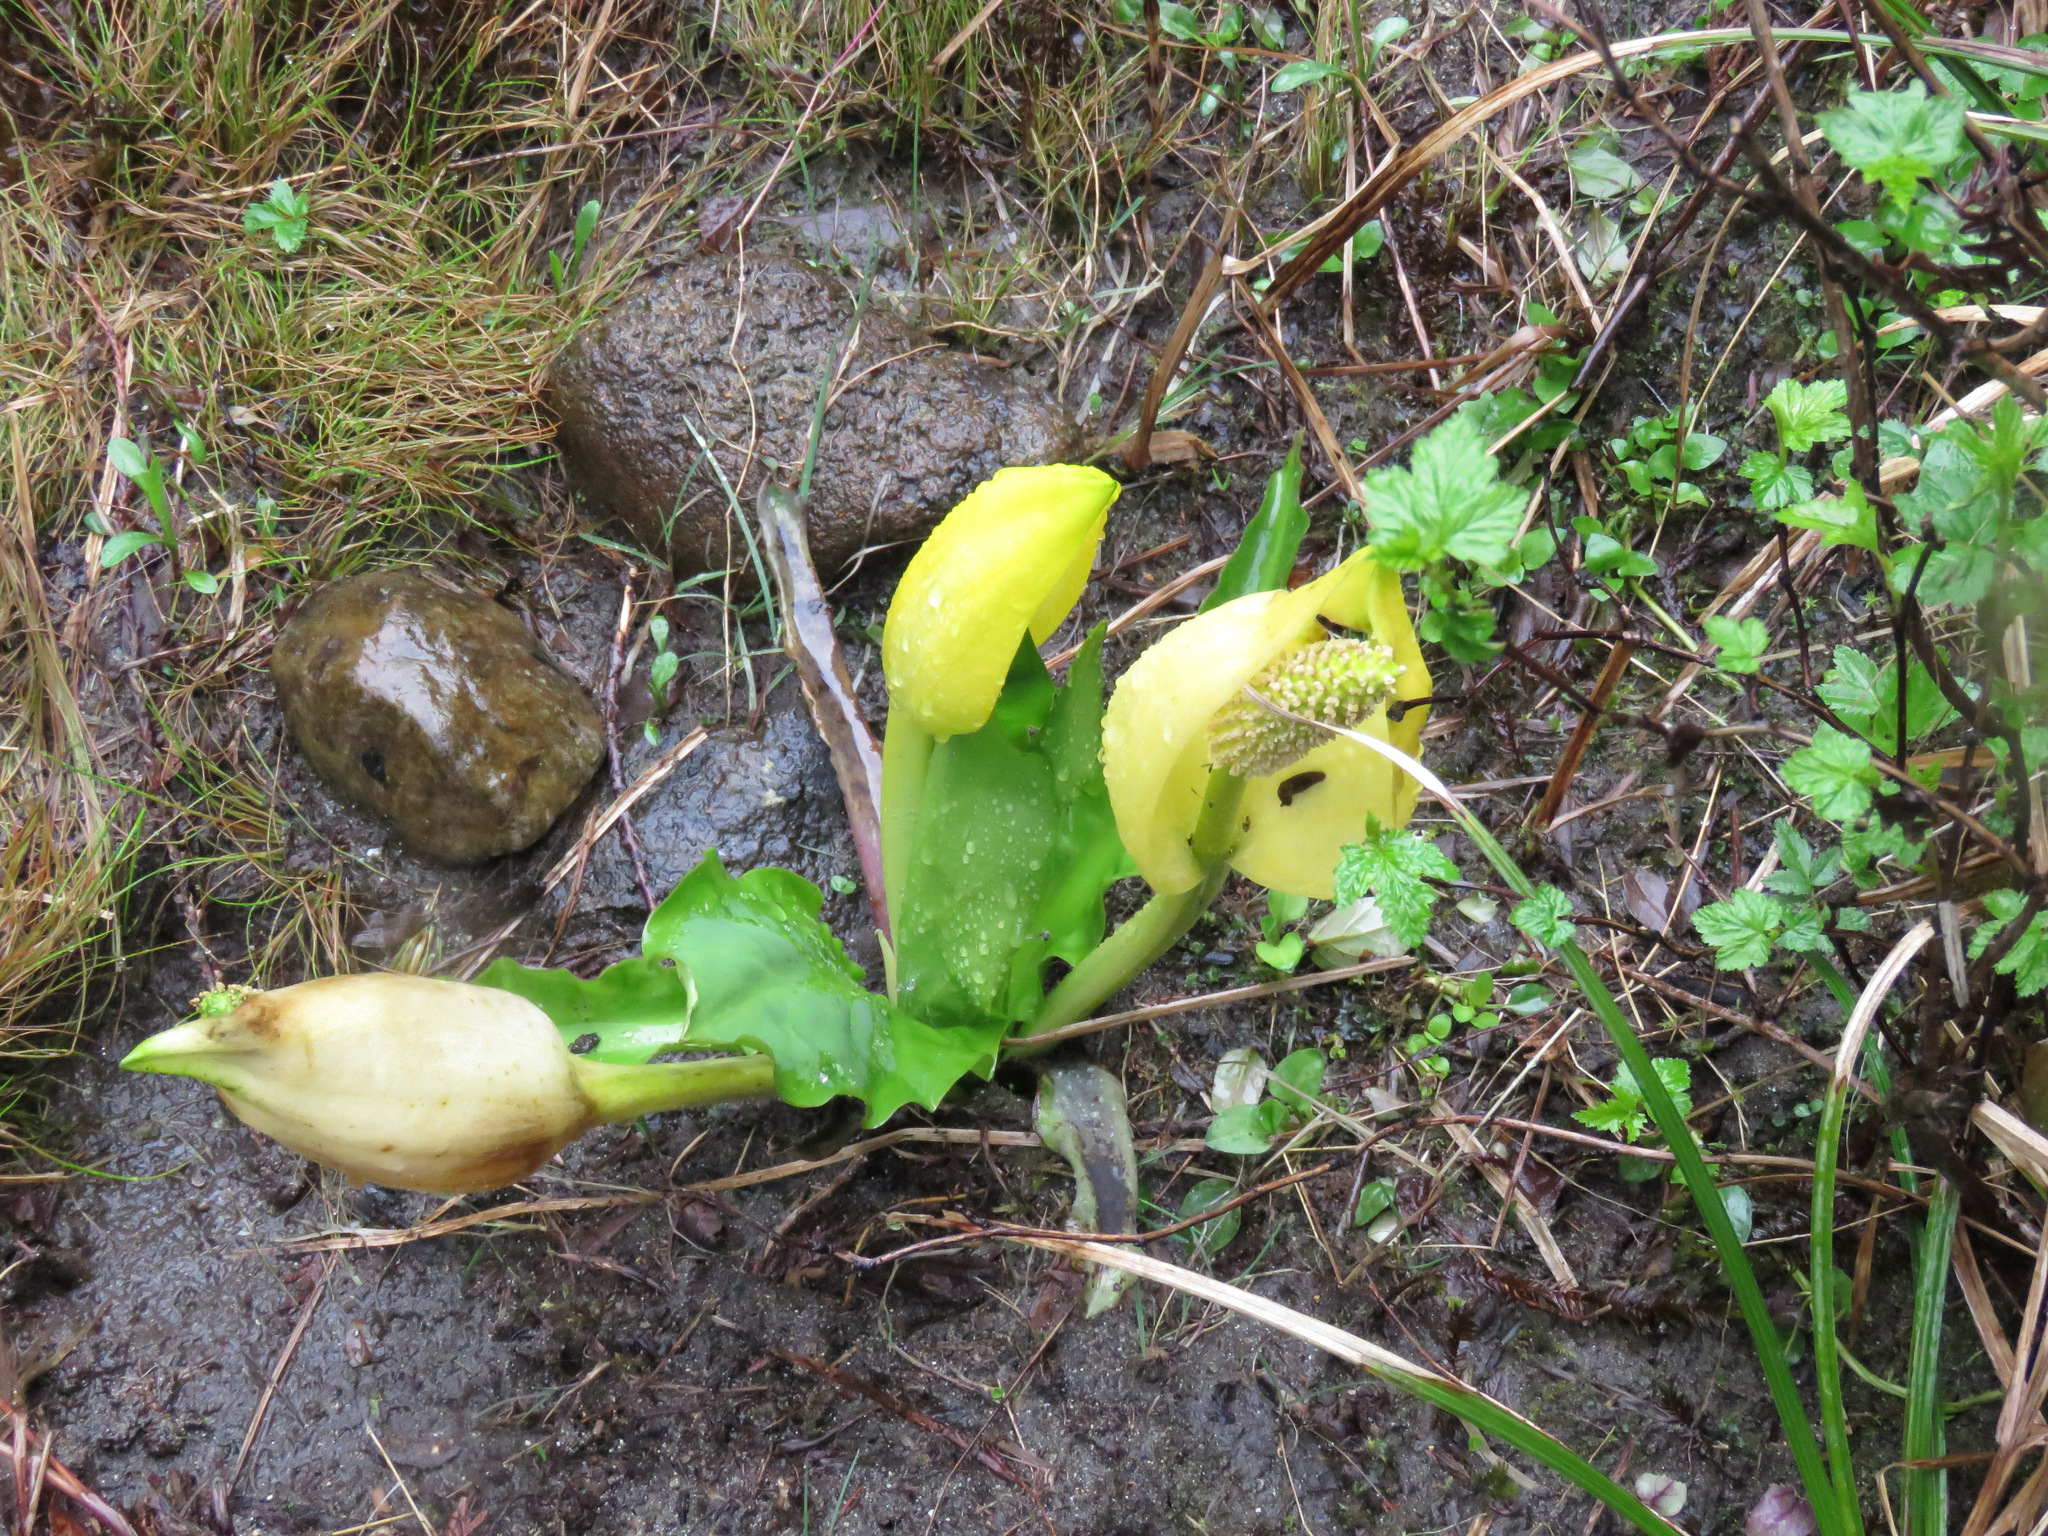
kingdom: Plantae
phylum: Tracheophyta
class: Liliopsida
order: Alismatales
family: Araceae
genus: Lysichiton
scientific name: Lysichiton americanus
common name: American skunk cabbage
